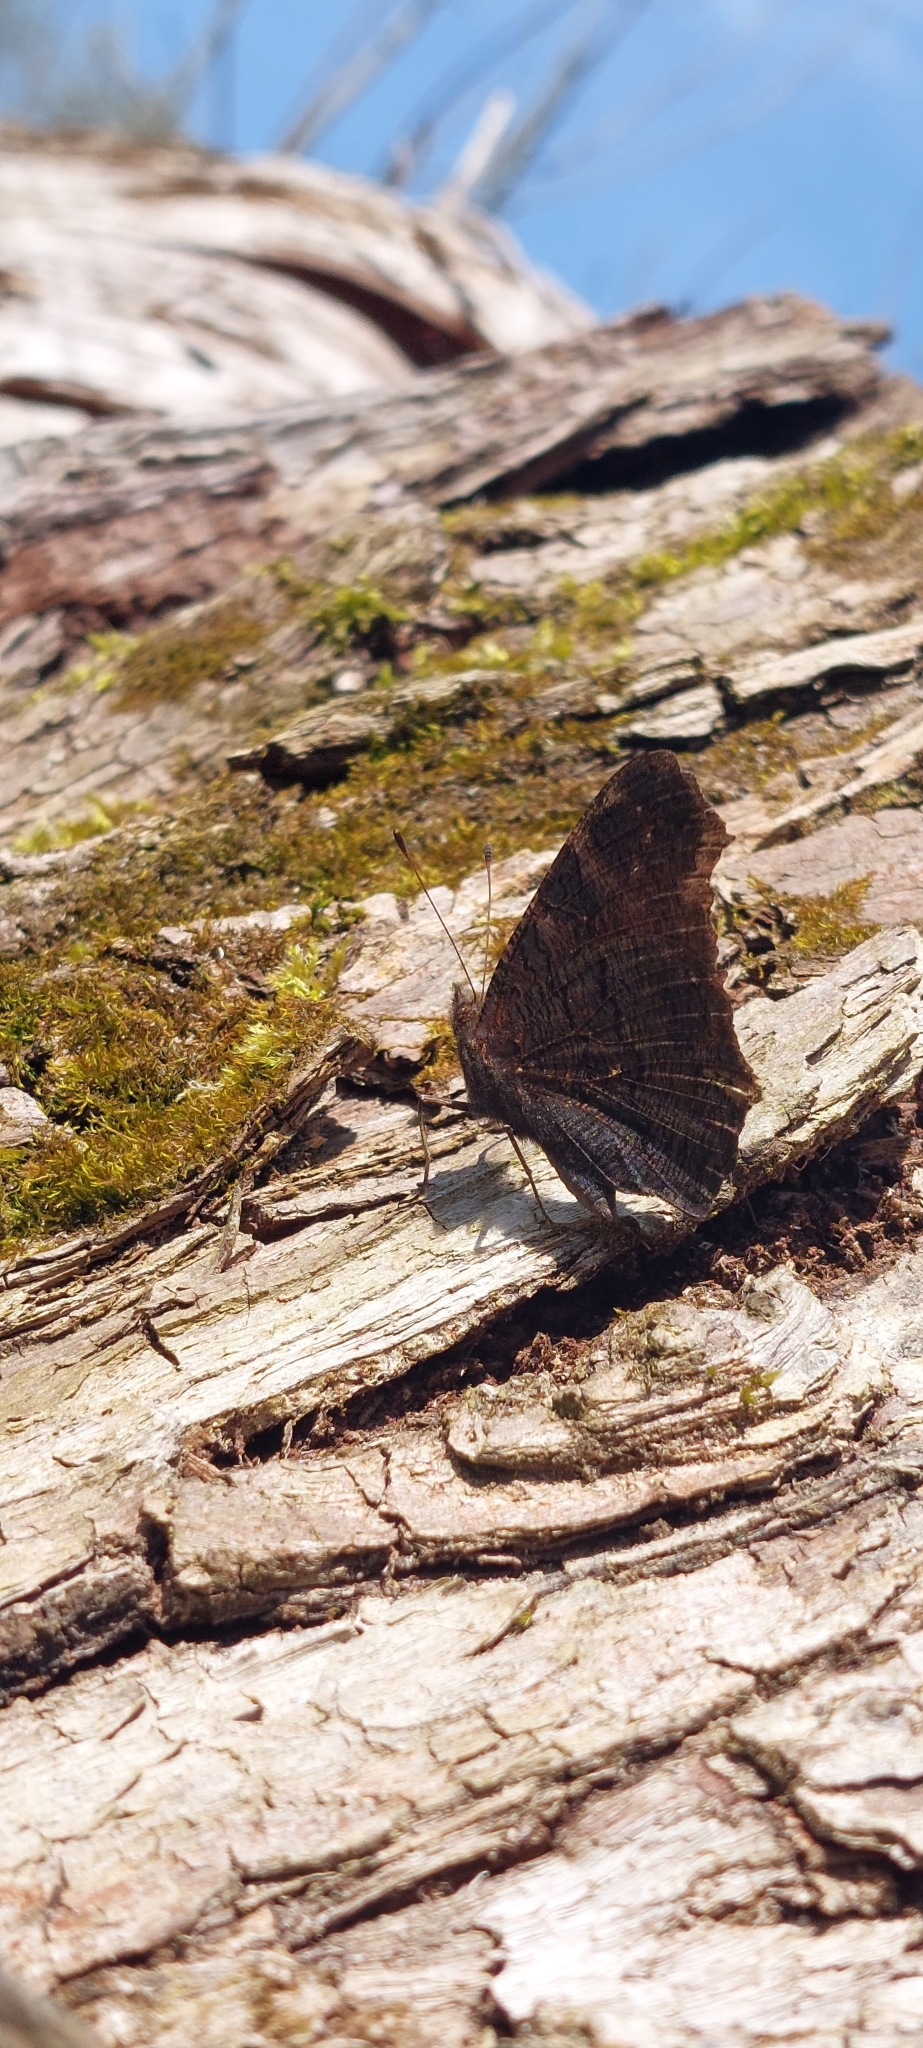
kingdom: Animalia
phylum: Arthropoda
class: Insecta
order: Lepidoptera
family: Nymphalidae
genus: Aglais
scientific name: Aglais io
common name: Peacock
